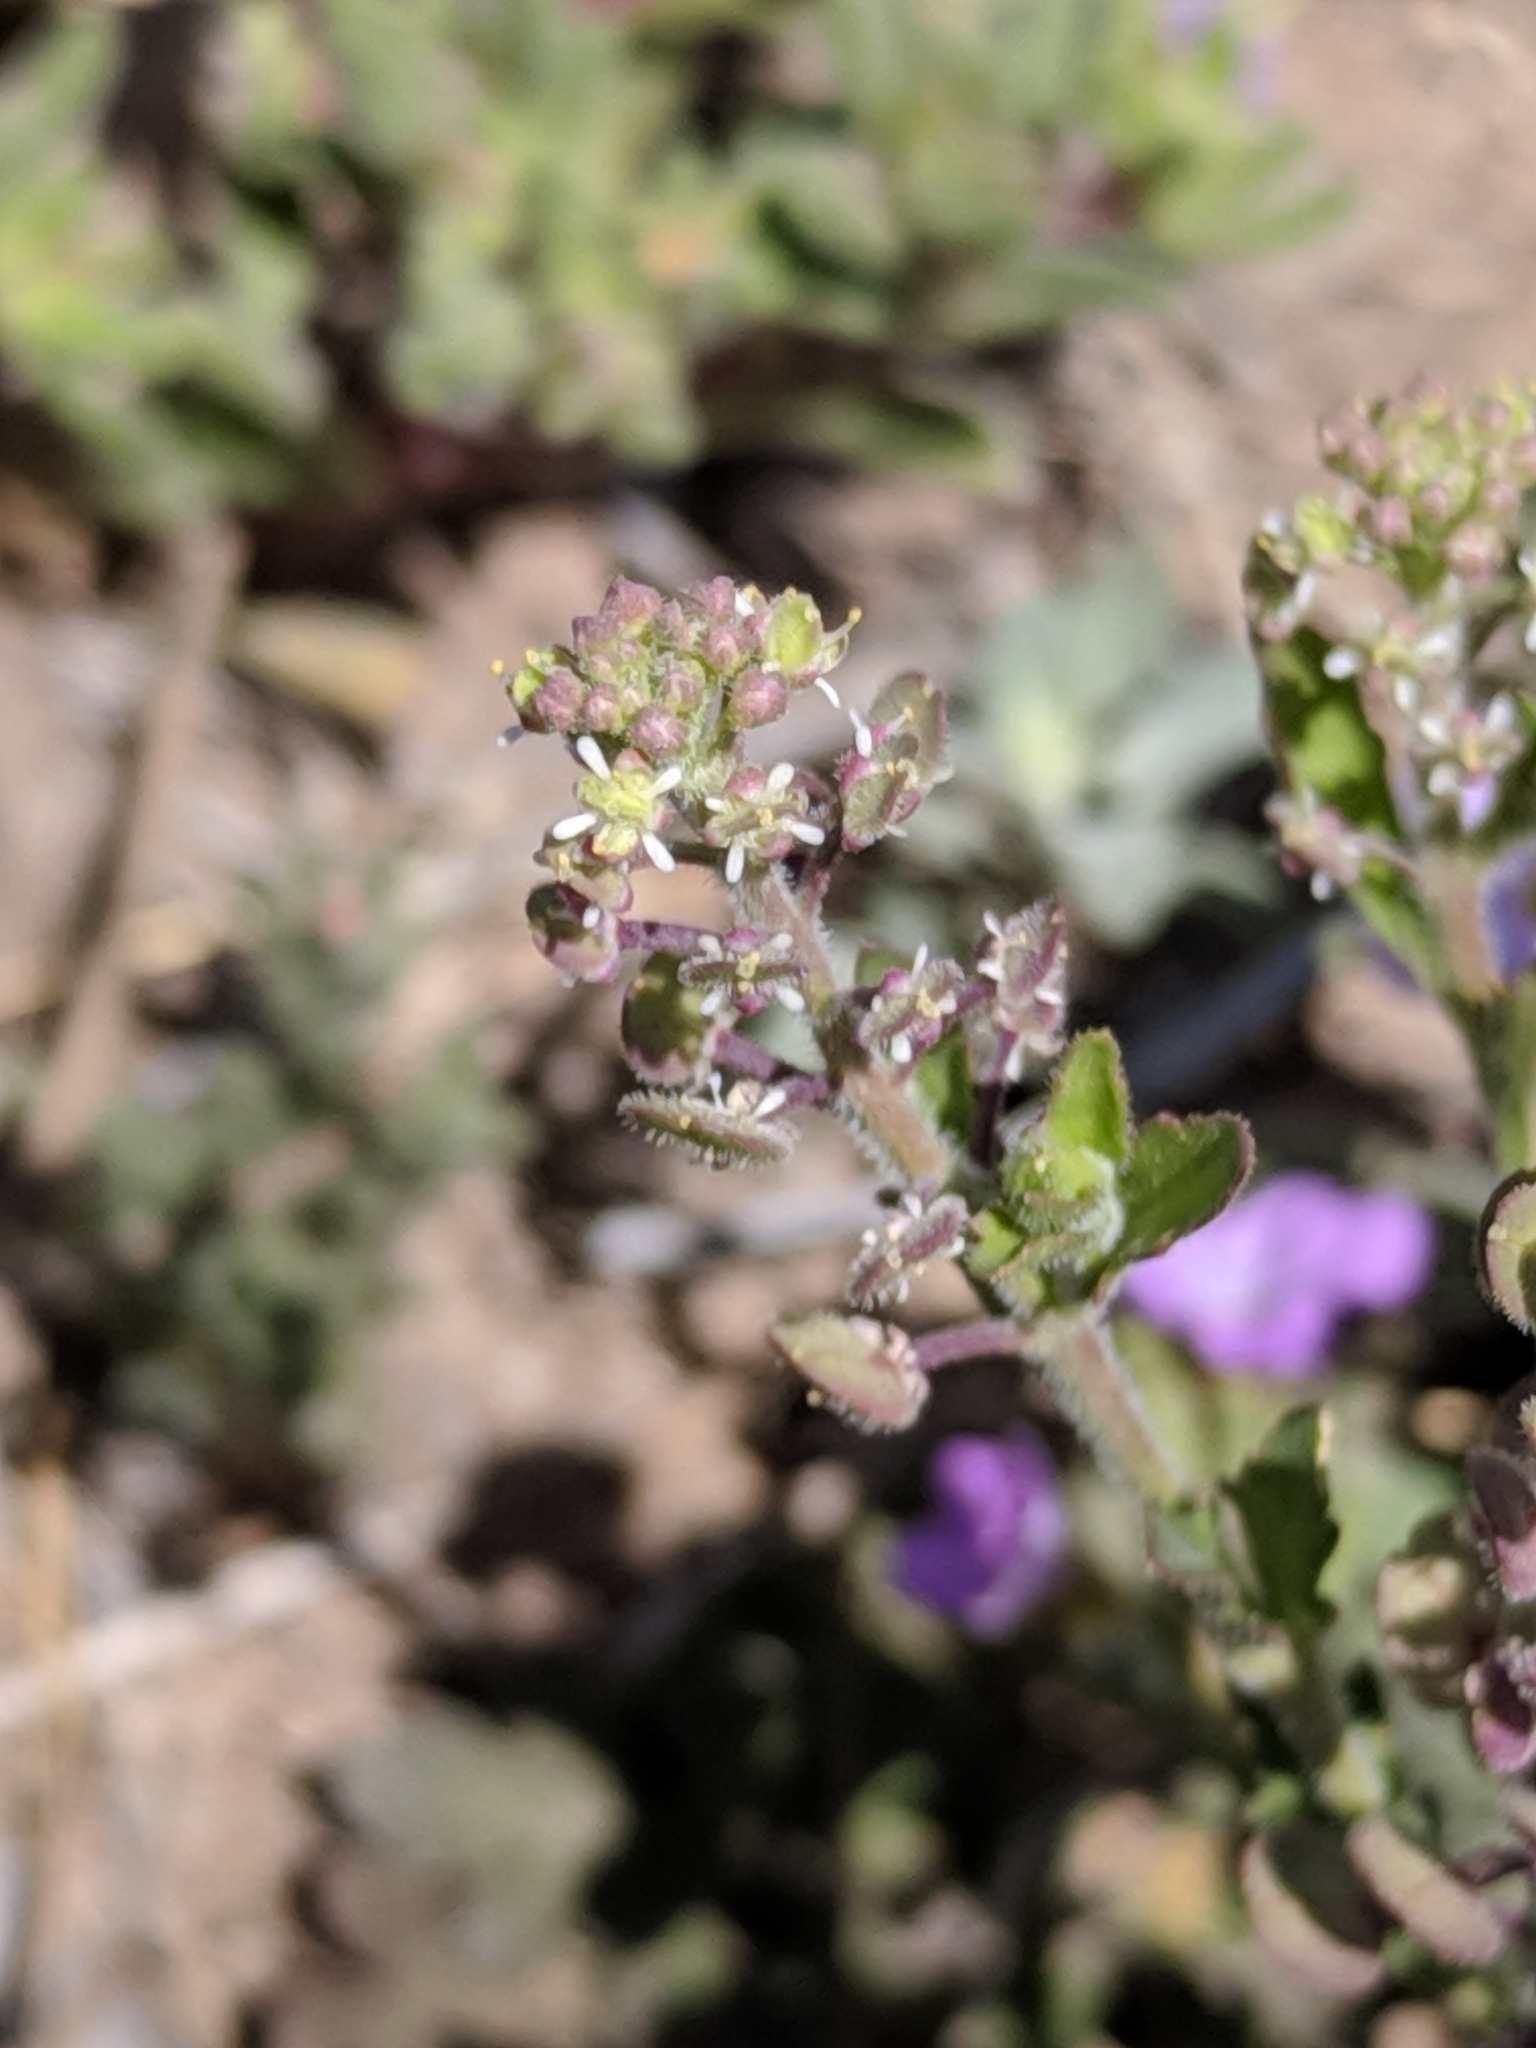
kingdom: Plantae
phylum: Tracheophyta
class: Magnoliopsida
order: Brassicales
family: Brassicaceae
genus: Lepidium
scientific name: Lepidium lasiocarpum
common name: Hairy-pod pepperwort
